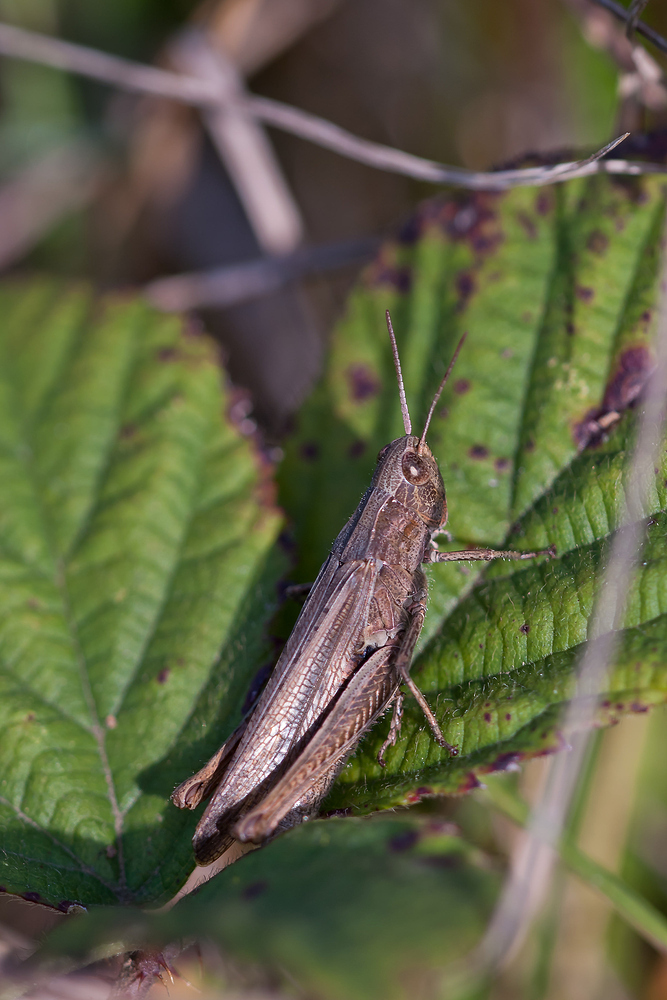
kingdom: Animalia
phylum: Arthropoda
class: Insecta
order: Orthoptera
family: Acrididae
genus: Chorthippus
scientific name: Chorthippus dorsatus
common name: Steppe grasshopper
